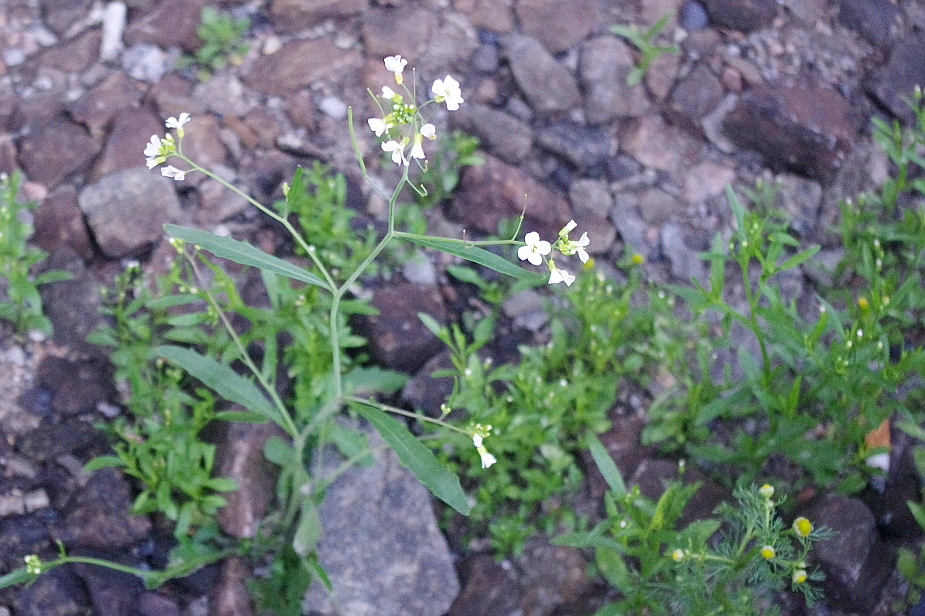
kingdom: Plantae
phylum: Tracheophyta
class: Magnoliopsida
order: Brassicales
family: Brassicaceae
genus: Arabidopsis
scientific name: Arabidopsis arenosa
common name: Sand rock-cress
